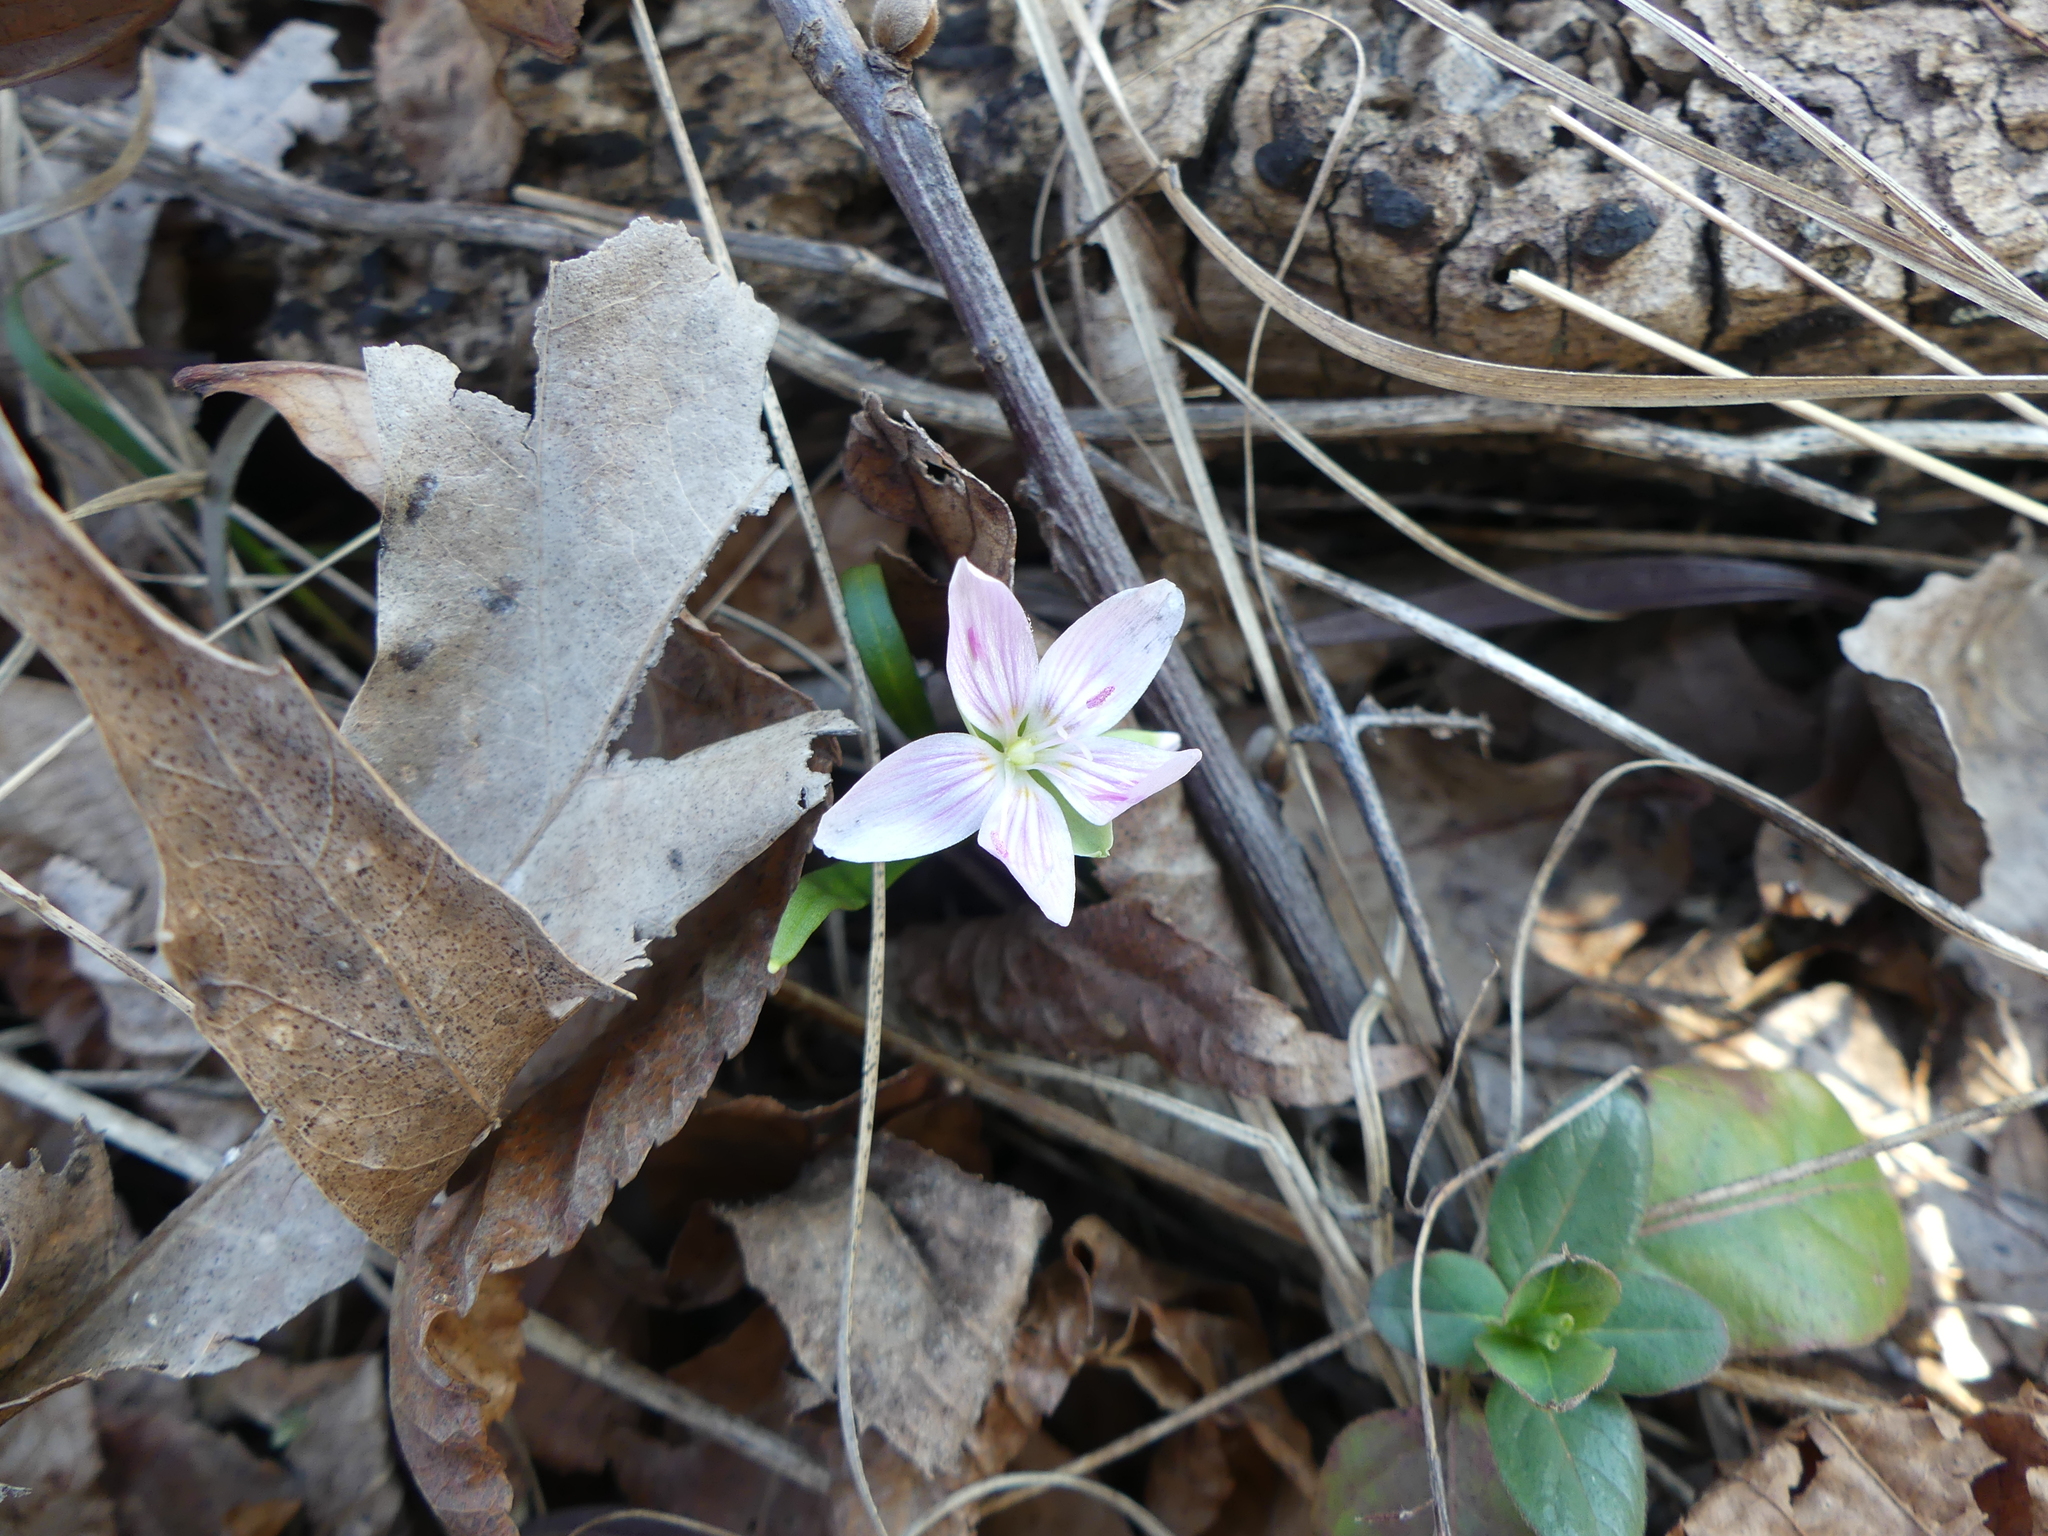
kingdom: Plantae
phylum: Tracheophyta
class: Magnoliopsida
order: Caryophyllales
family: Montiaceae
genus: Claytonia
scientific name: Claytonia virginica
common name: Virginia springbeauty
